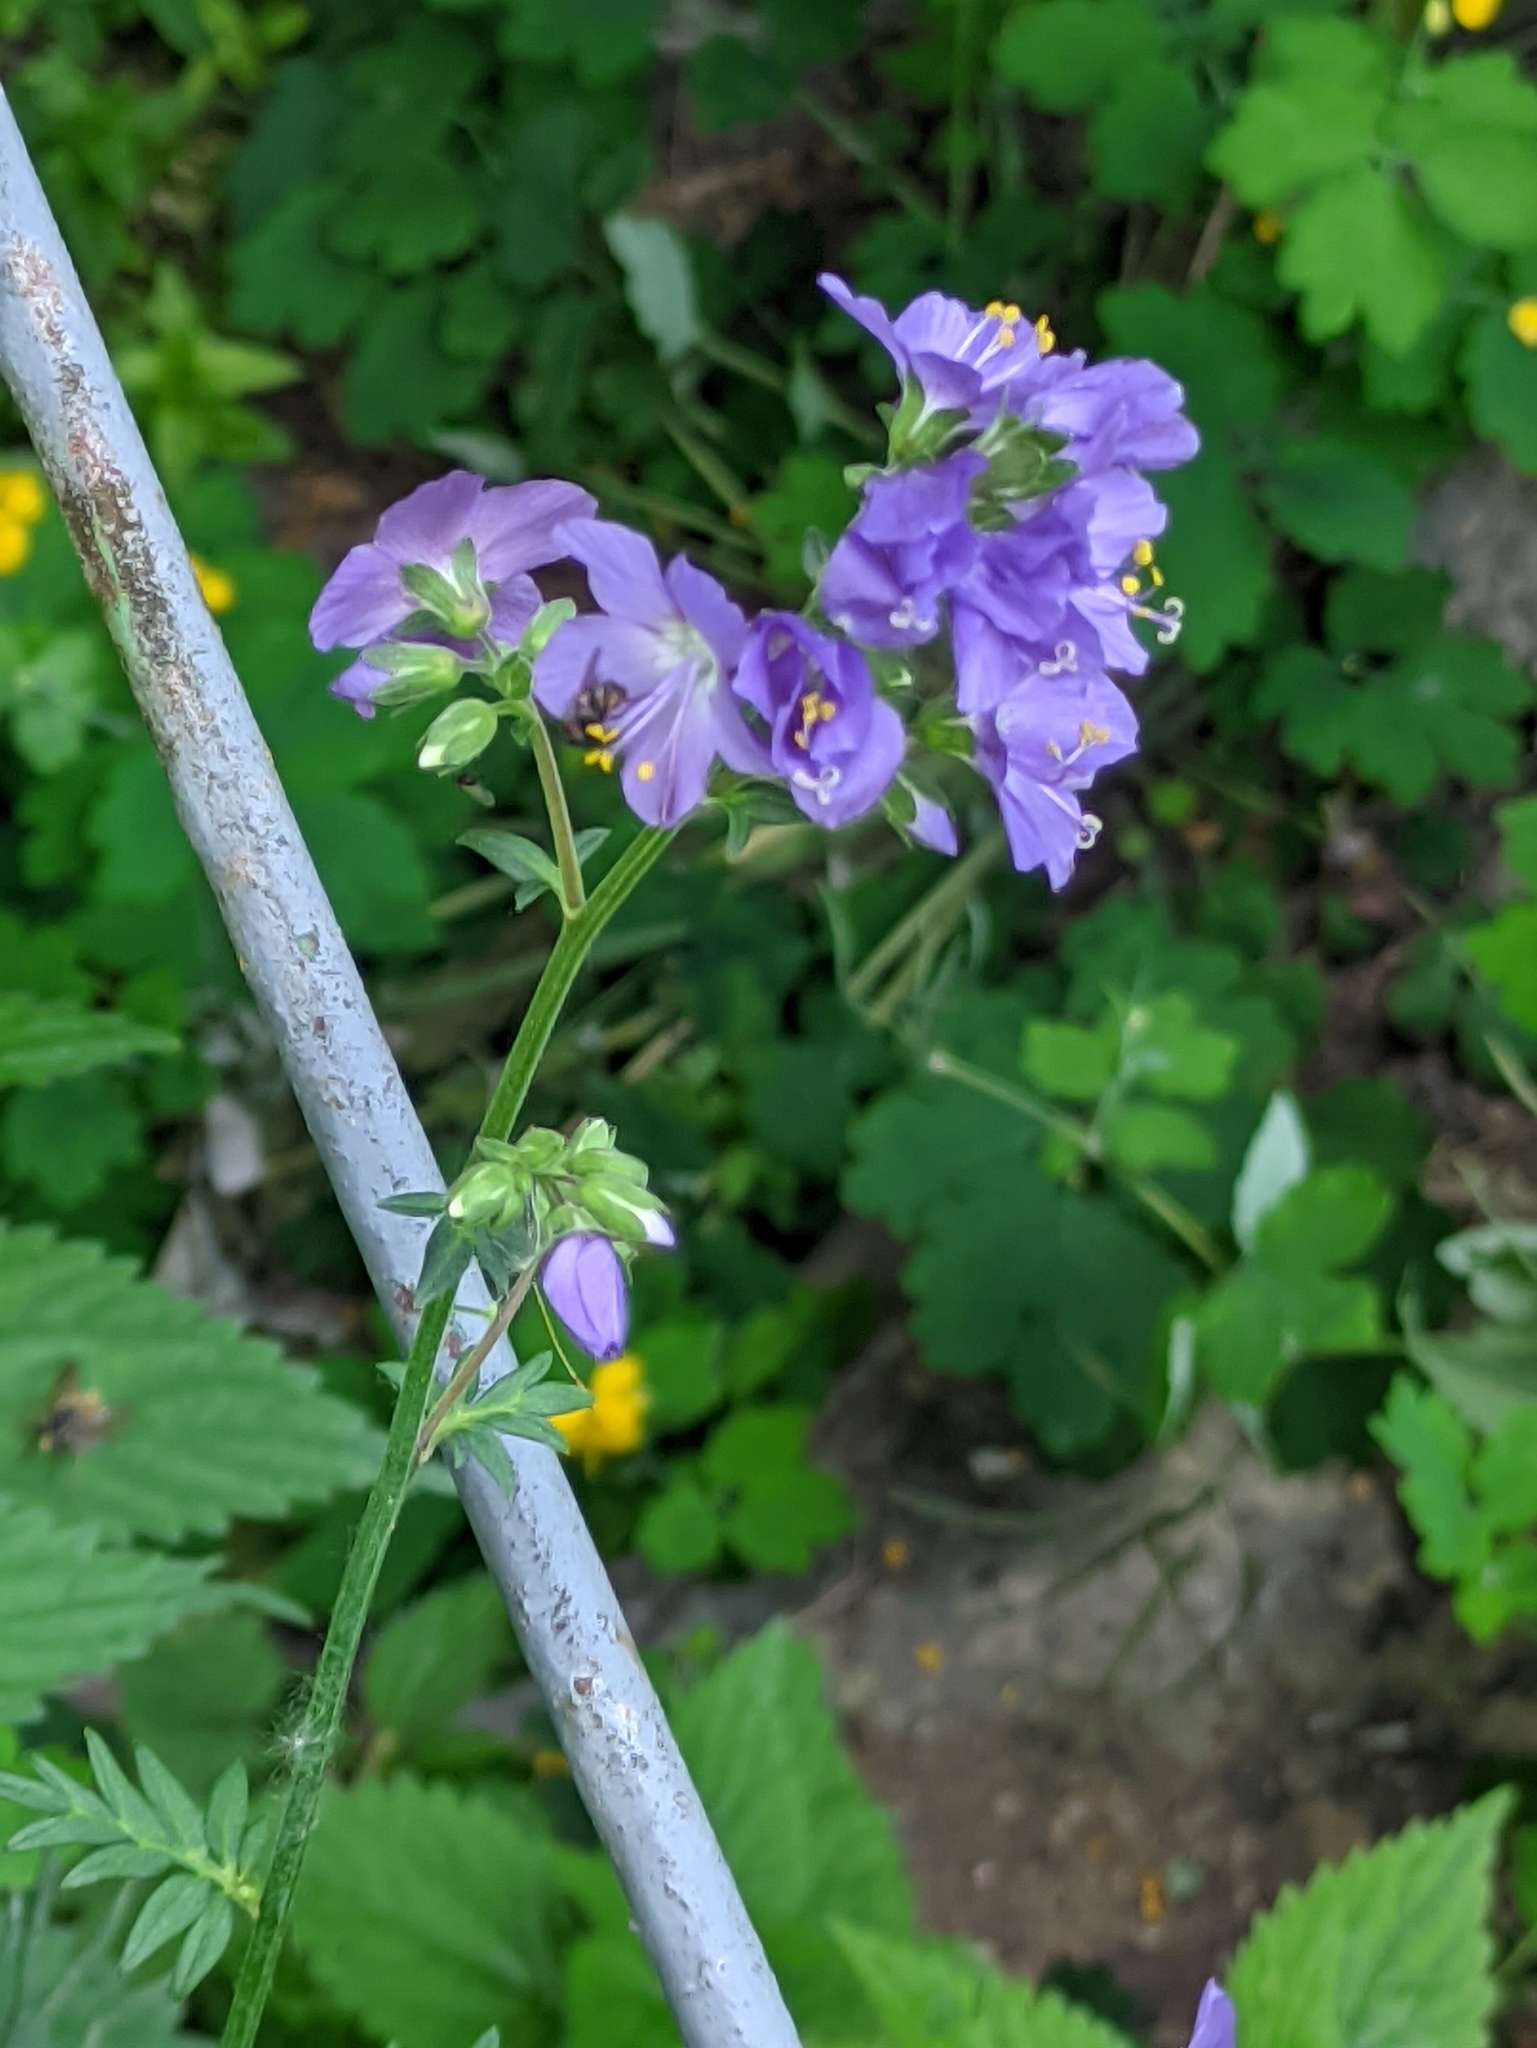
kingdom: Plantae
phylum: Tracheophyta
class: Magnoliopsida
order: Ericales
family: Polemoniaceae
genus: Polemonium
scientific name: Polemonium caeruleum
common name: Jacob's-ladder
